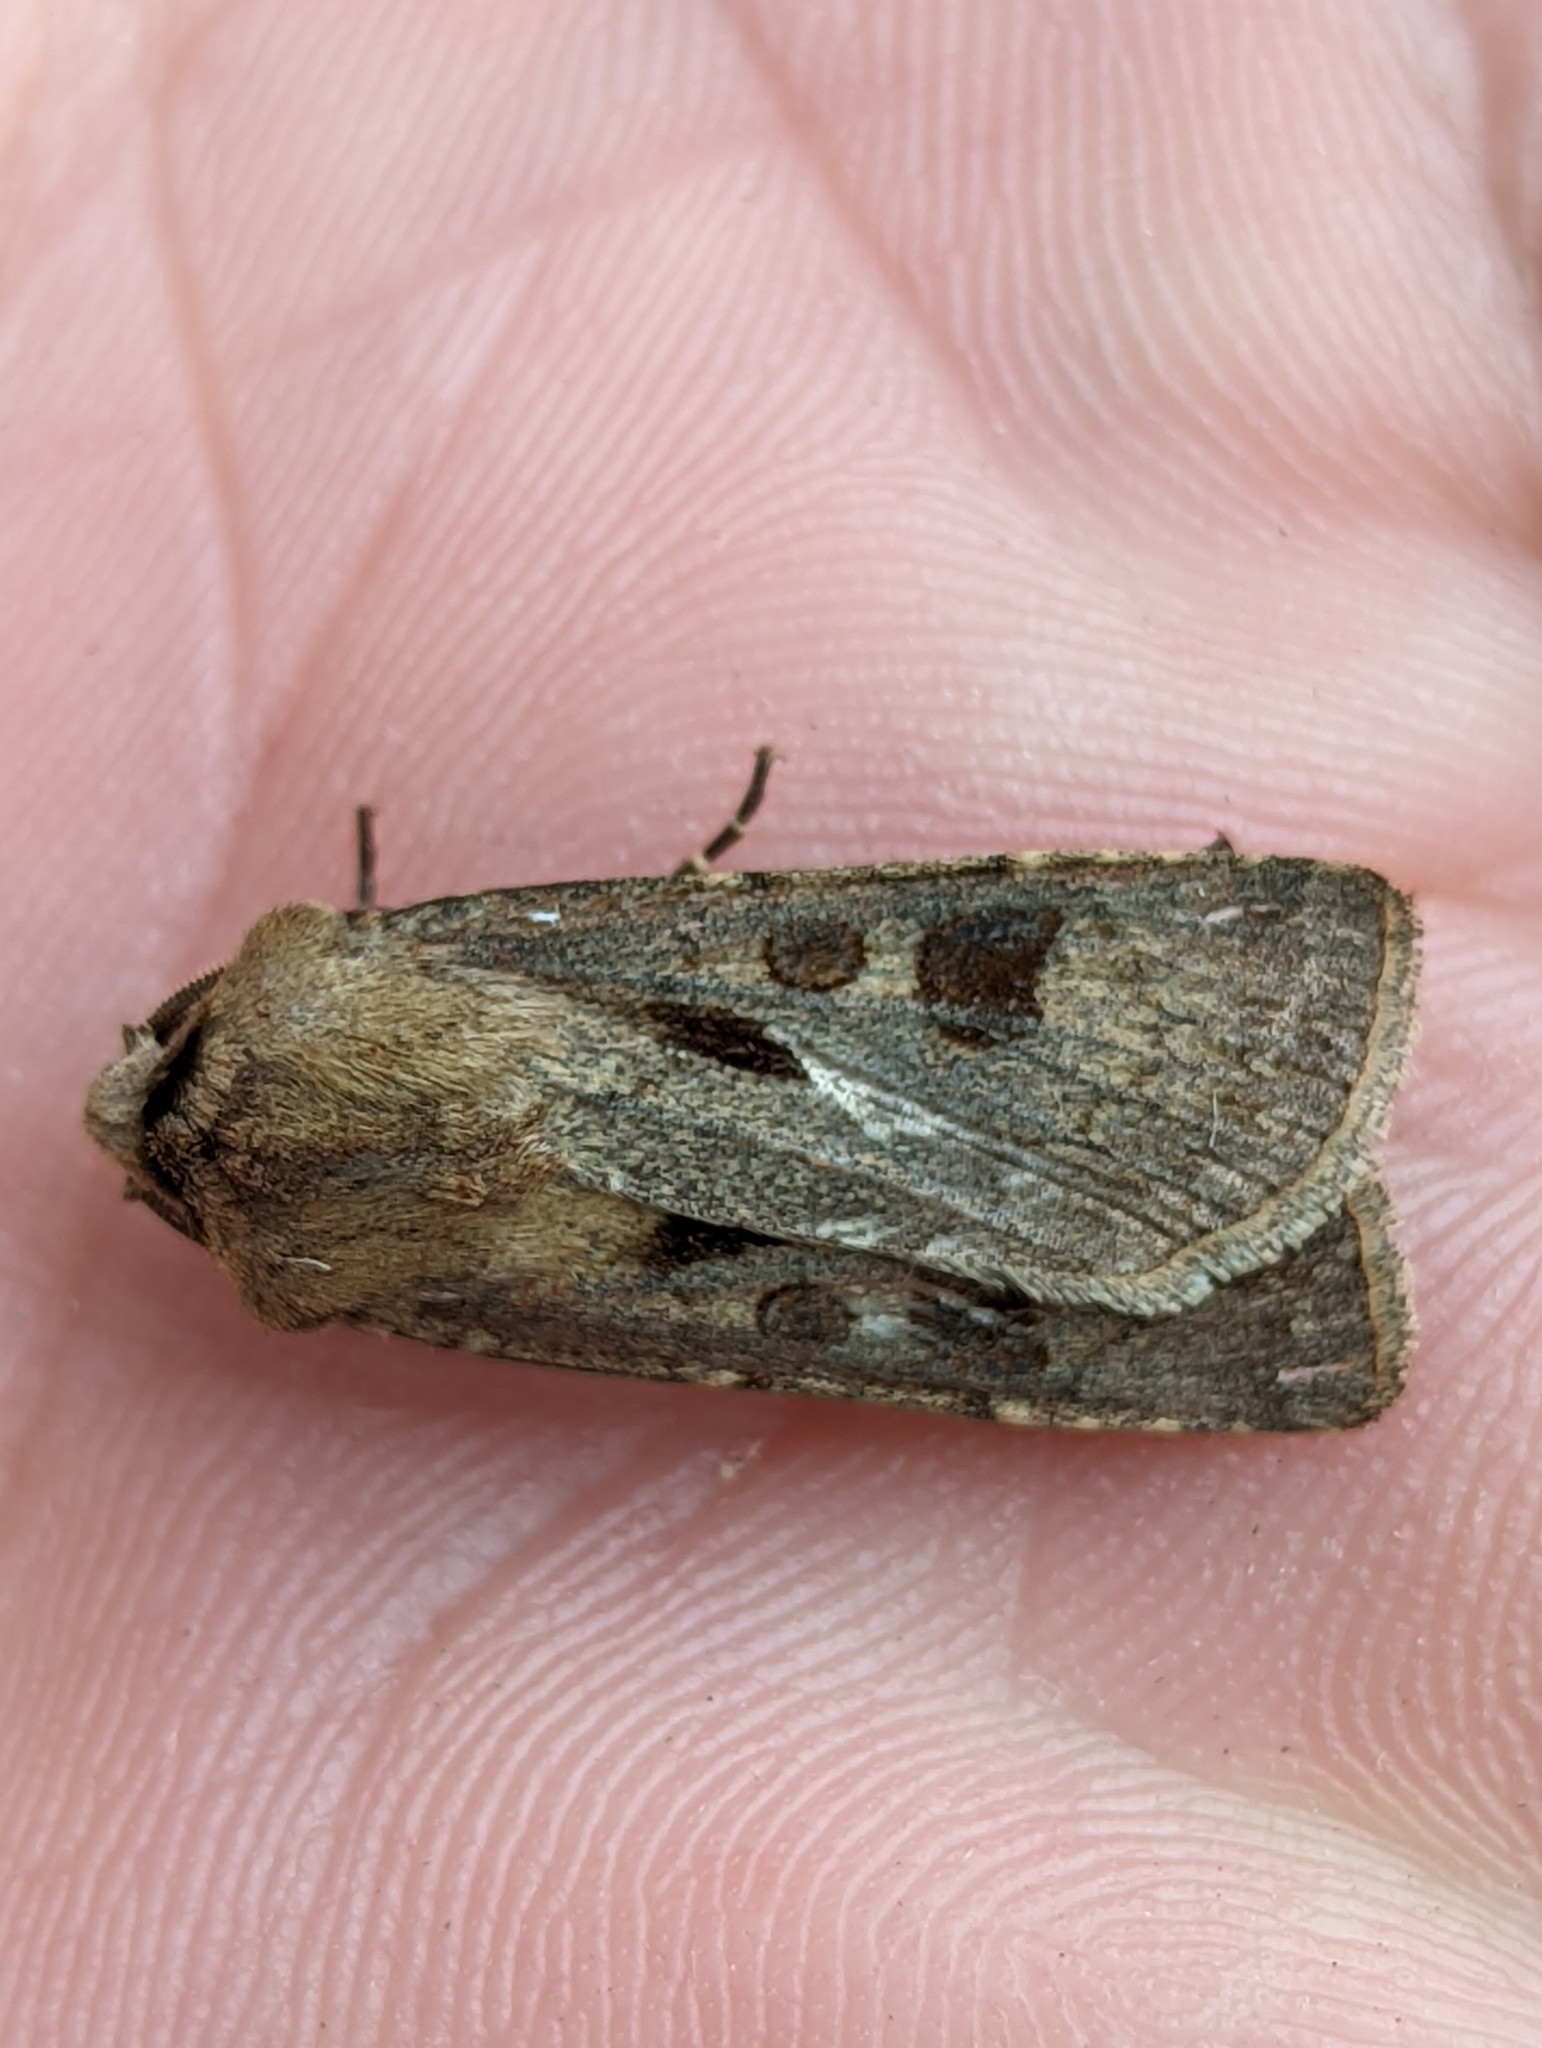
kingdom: Animalia
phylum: Arthropoda
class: Insecta
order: Lepidoptera
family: Noctuidae
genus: Agrotis
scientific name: Agrotis exclamationis
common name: Heart and dart
